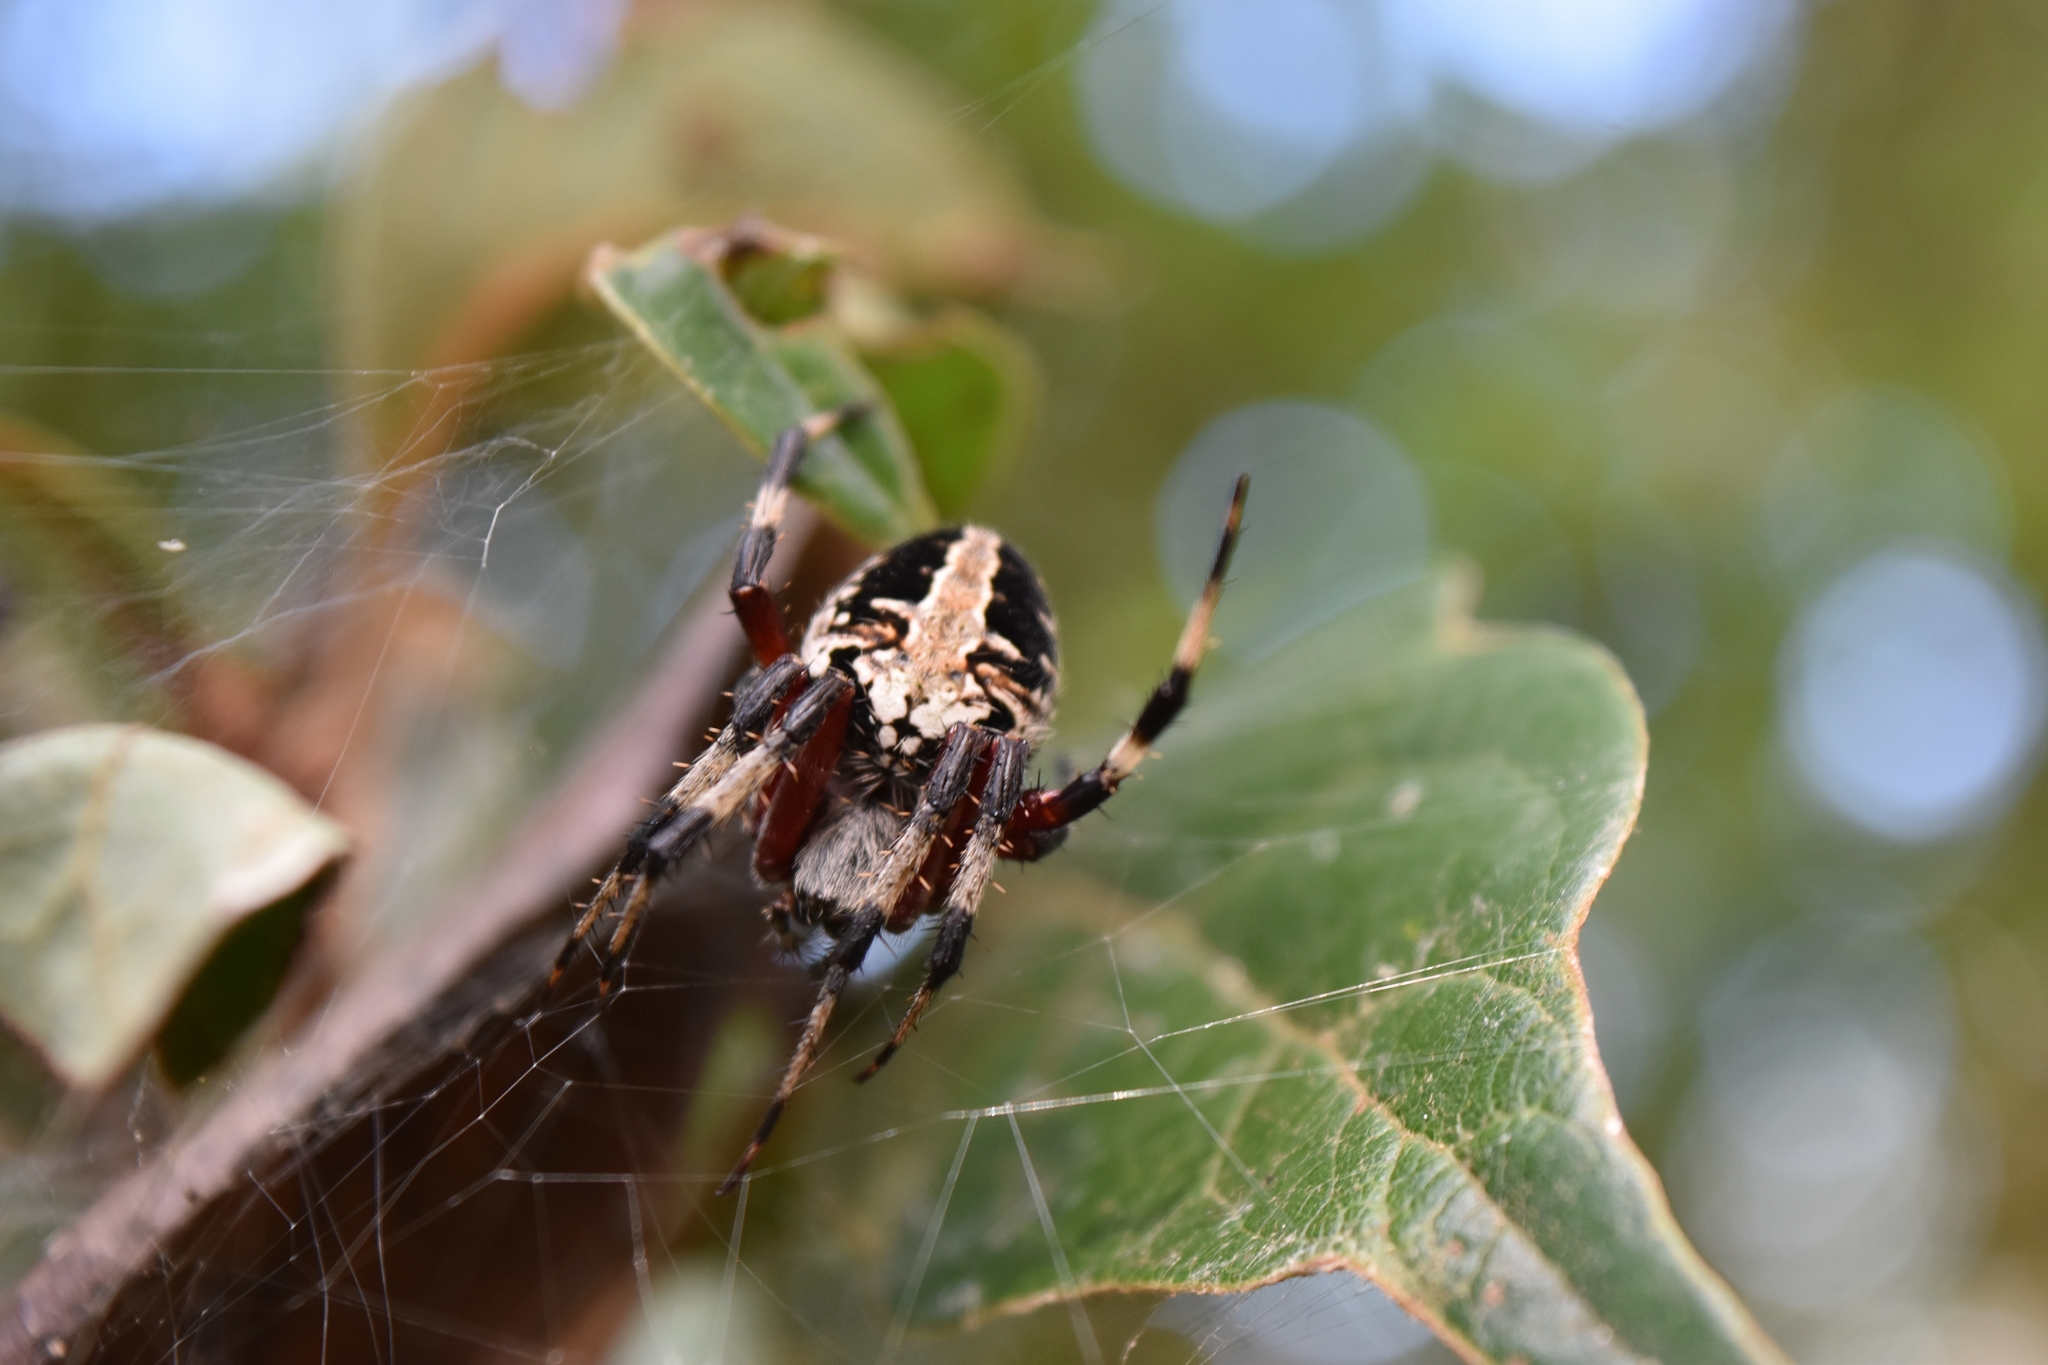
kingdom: Animalia
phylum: Arthropoda
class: Arachnida
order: Araneae
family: Araneidae
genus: Neoscona
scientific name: Neoscona domiciliorum
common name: Red-femured spotted orbweaver
